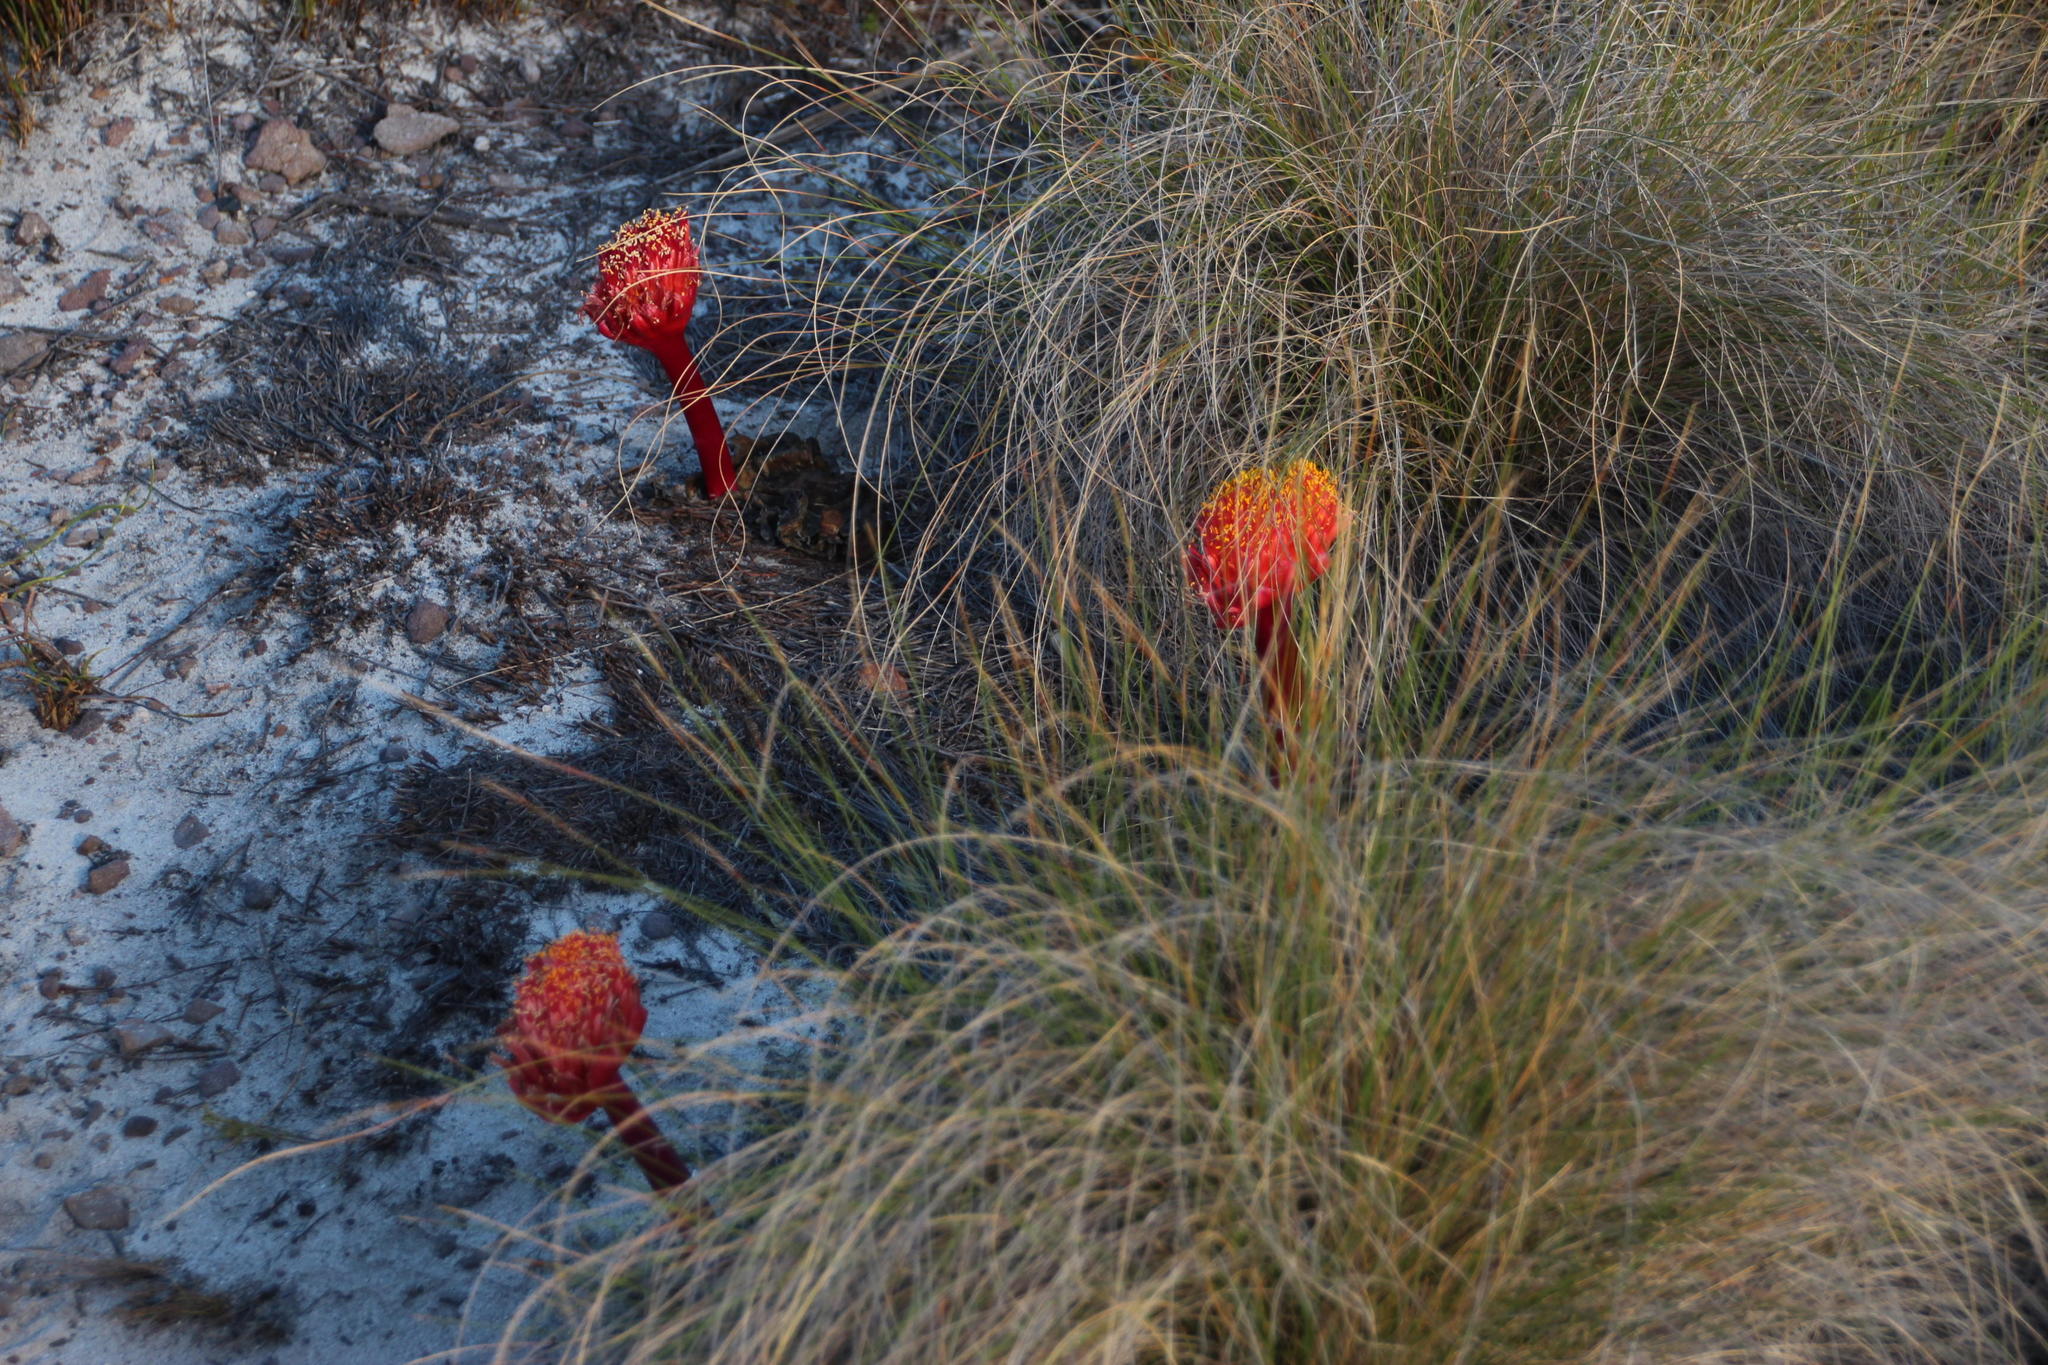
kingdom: Plantae
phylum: Tracheophyta
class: Liliopsida
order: Asparagales
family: Amaryllidaceae
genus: Haemanthus
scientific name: Haemanthus sanguineus
